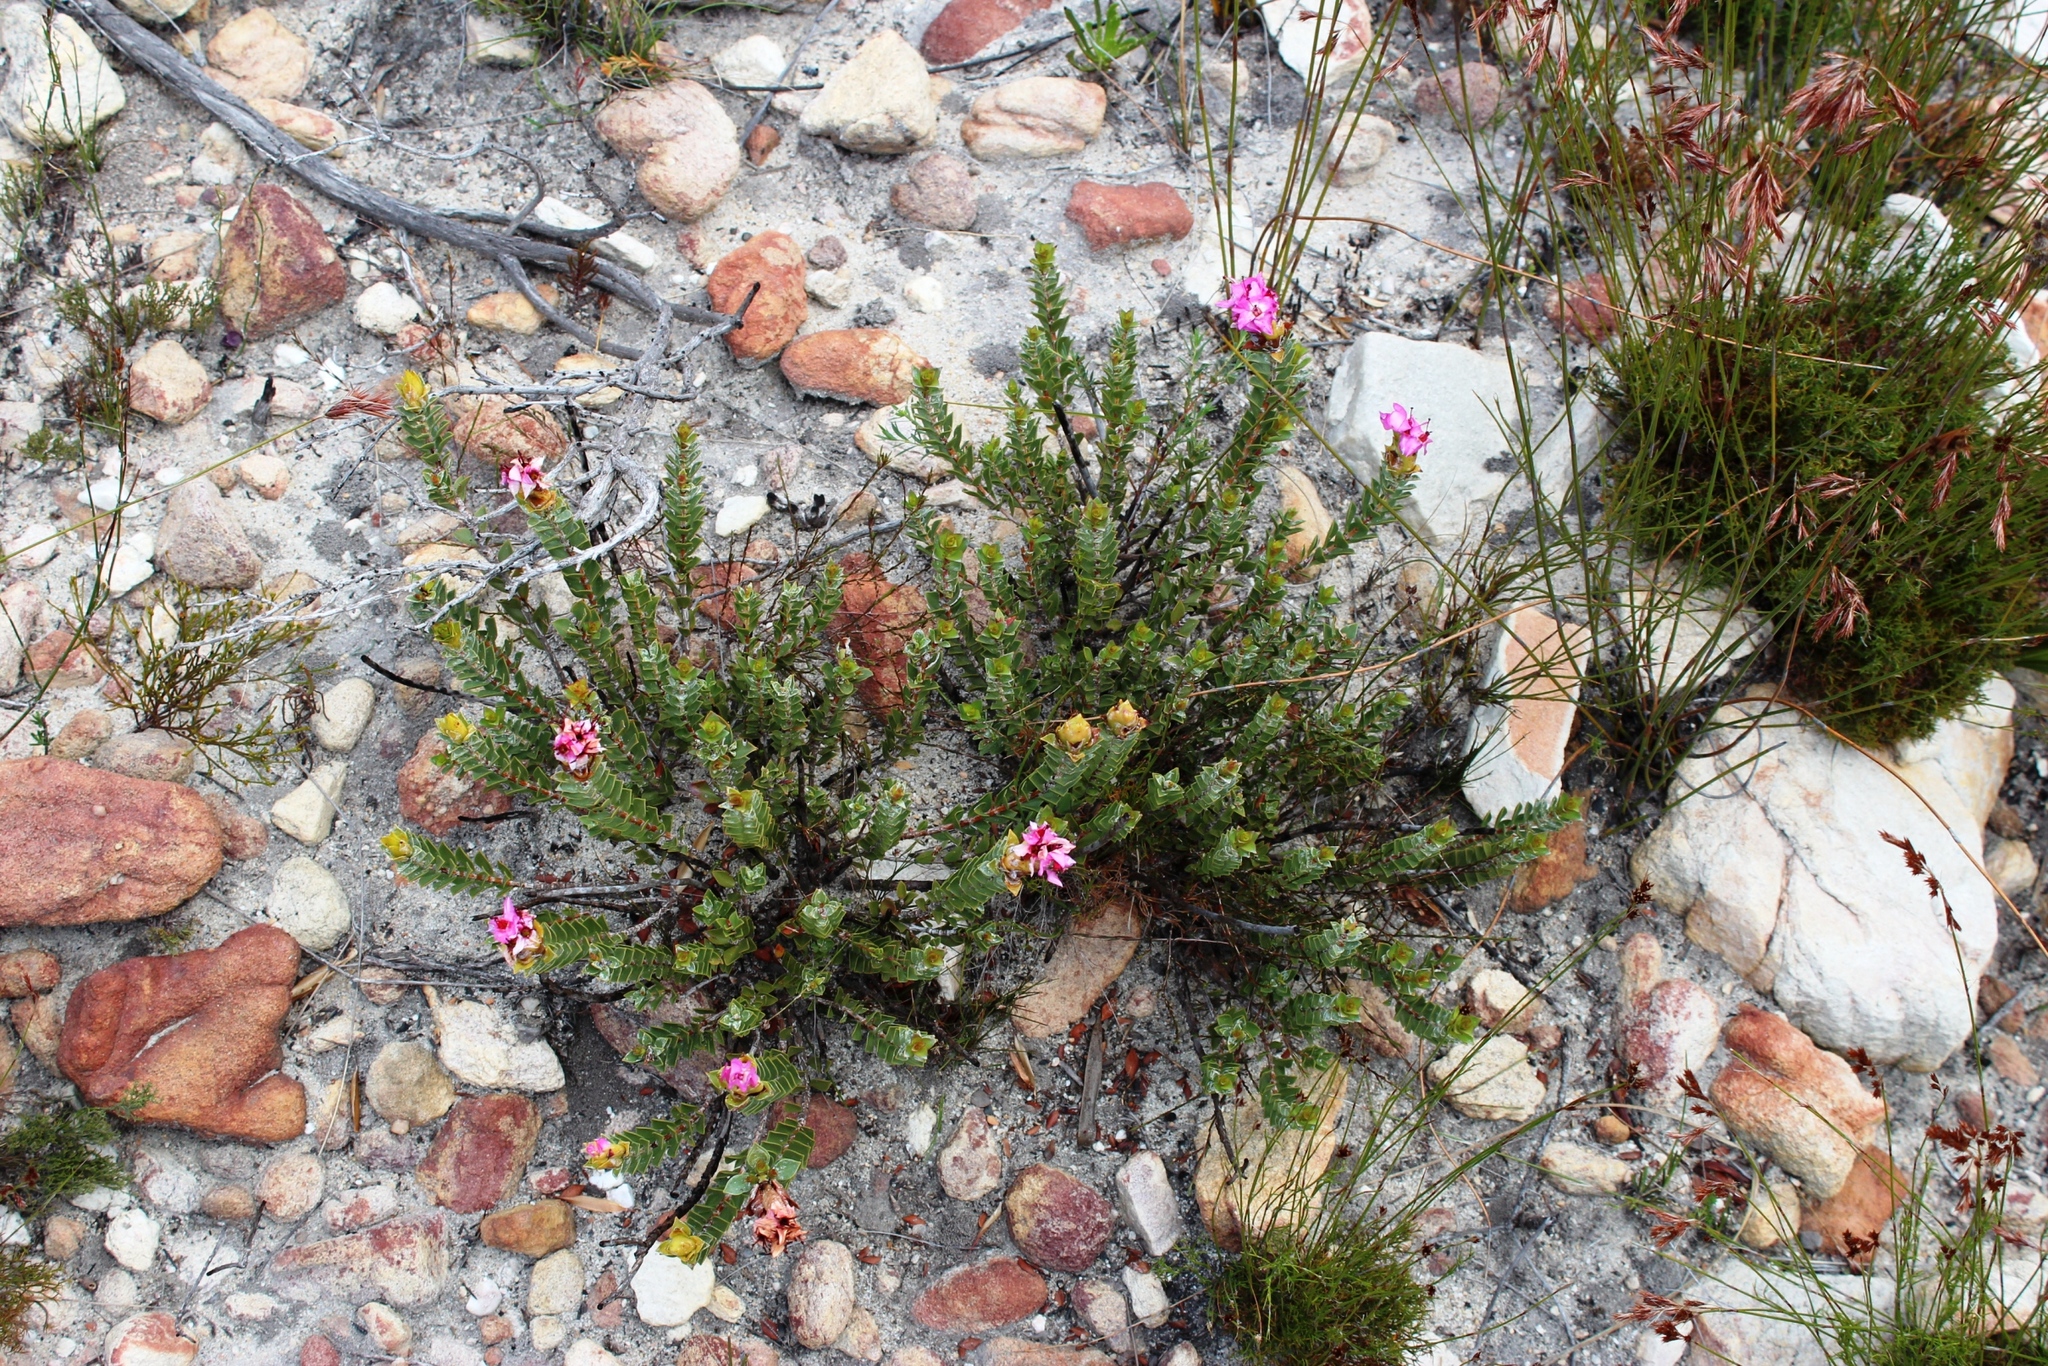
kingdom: Plantae
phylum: Tracheophyta
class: Magnoliopsida
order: Myrtales
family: Penaeaceae
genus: Saltera
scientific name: Saltera sarcocolla
